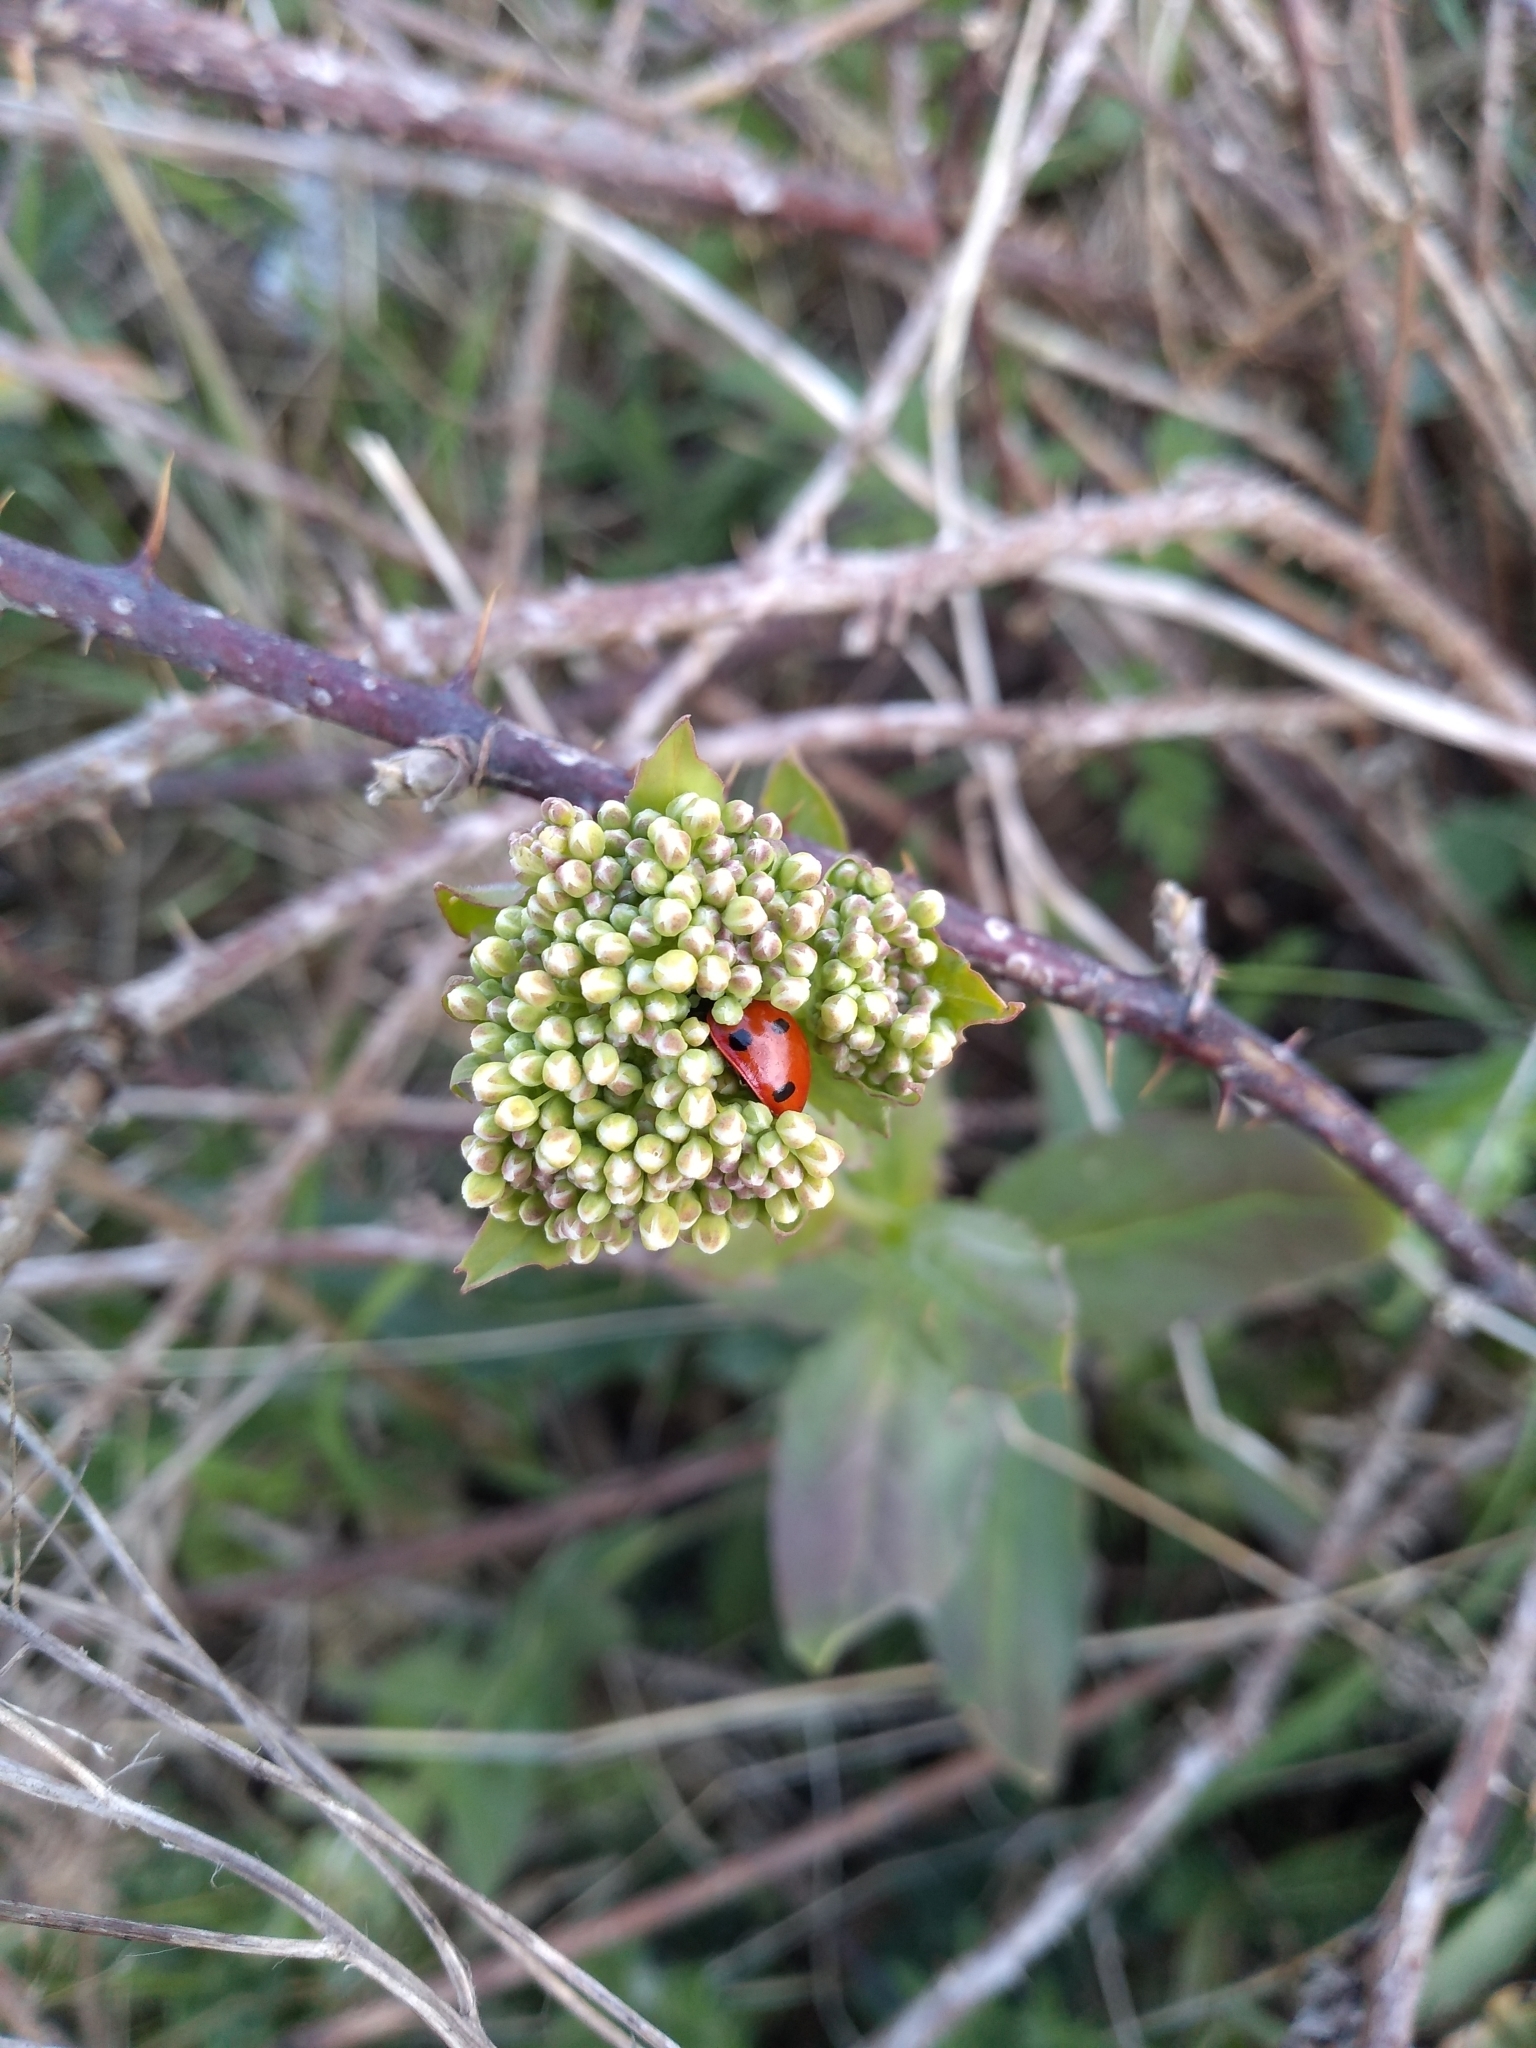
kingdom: Animalia
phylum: Arthropoda
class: Insecta
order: Coleoptera
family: Coccinellidae
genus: Coccinella
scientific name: Coccinella septempunctata
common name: Sevenspotted lady beetle
